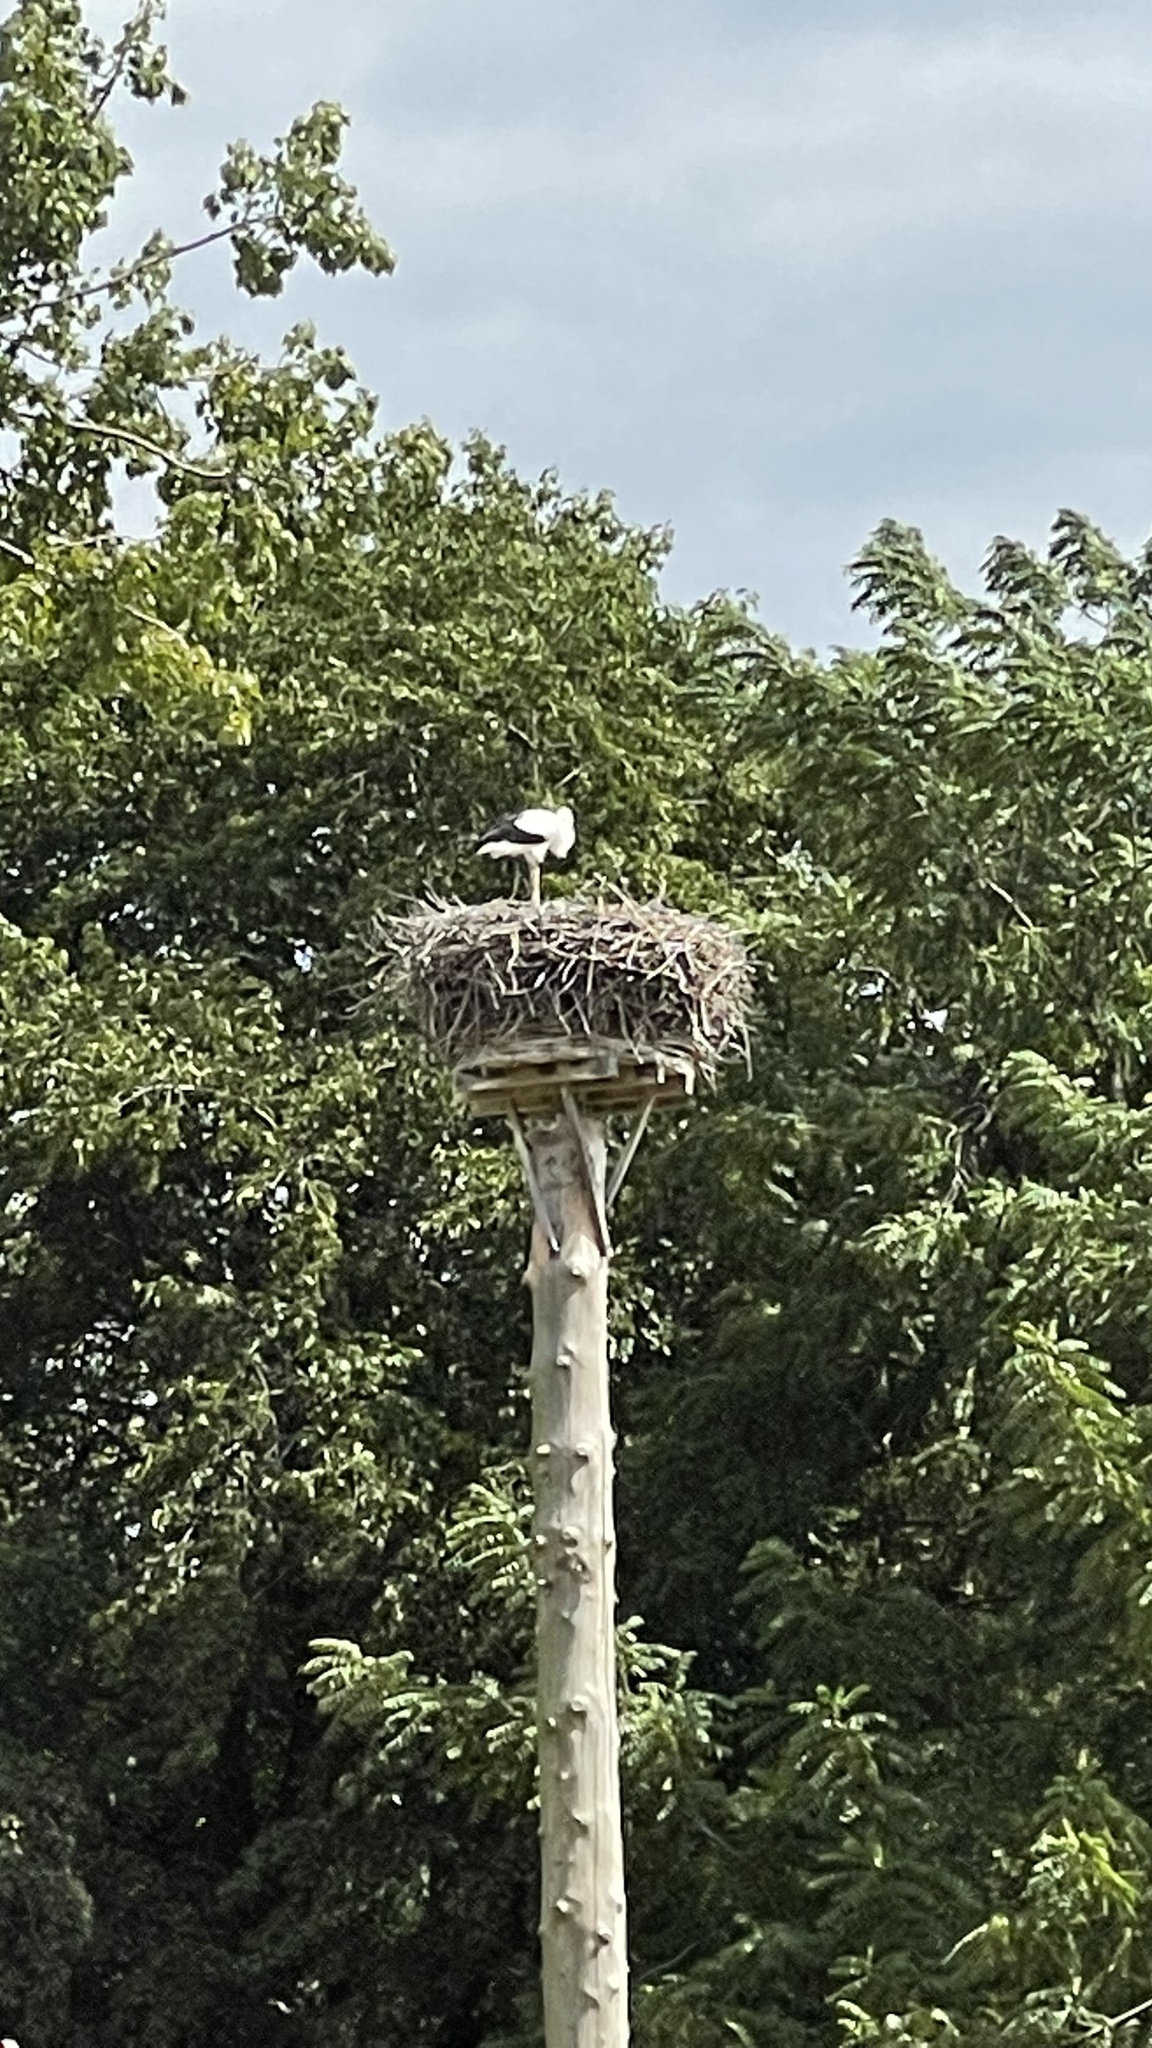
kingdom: Animalia
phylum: Chordata
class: Aves
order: Ciconiiformes
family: Ciconiidae
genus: Ciconia
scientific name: Ciconia ciconia
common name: White stork
